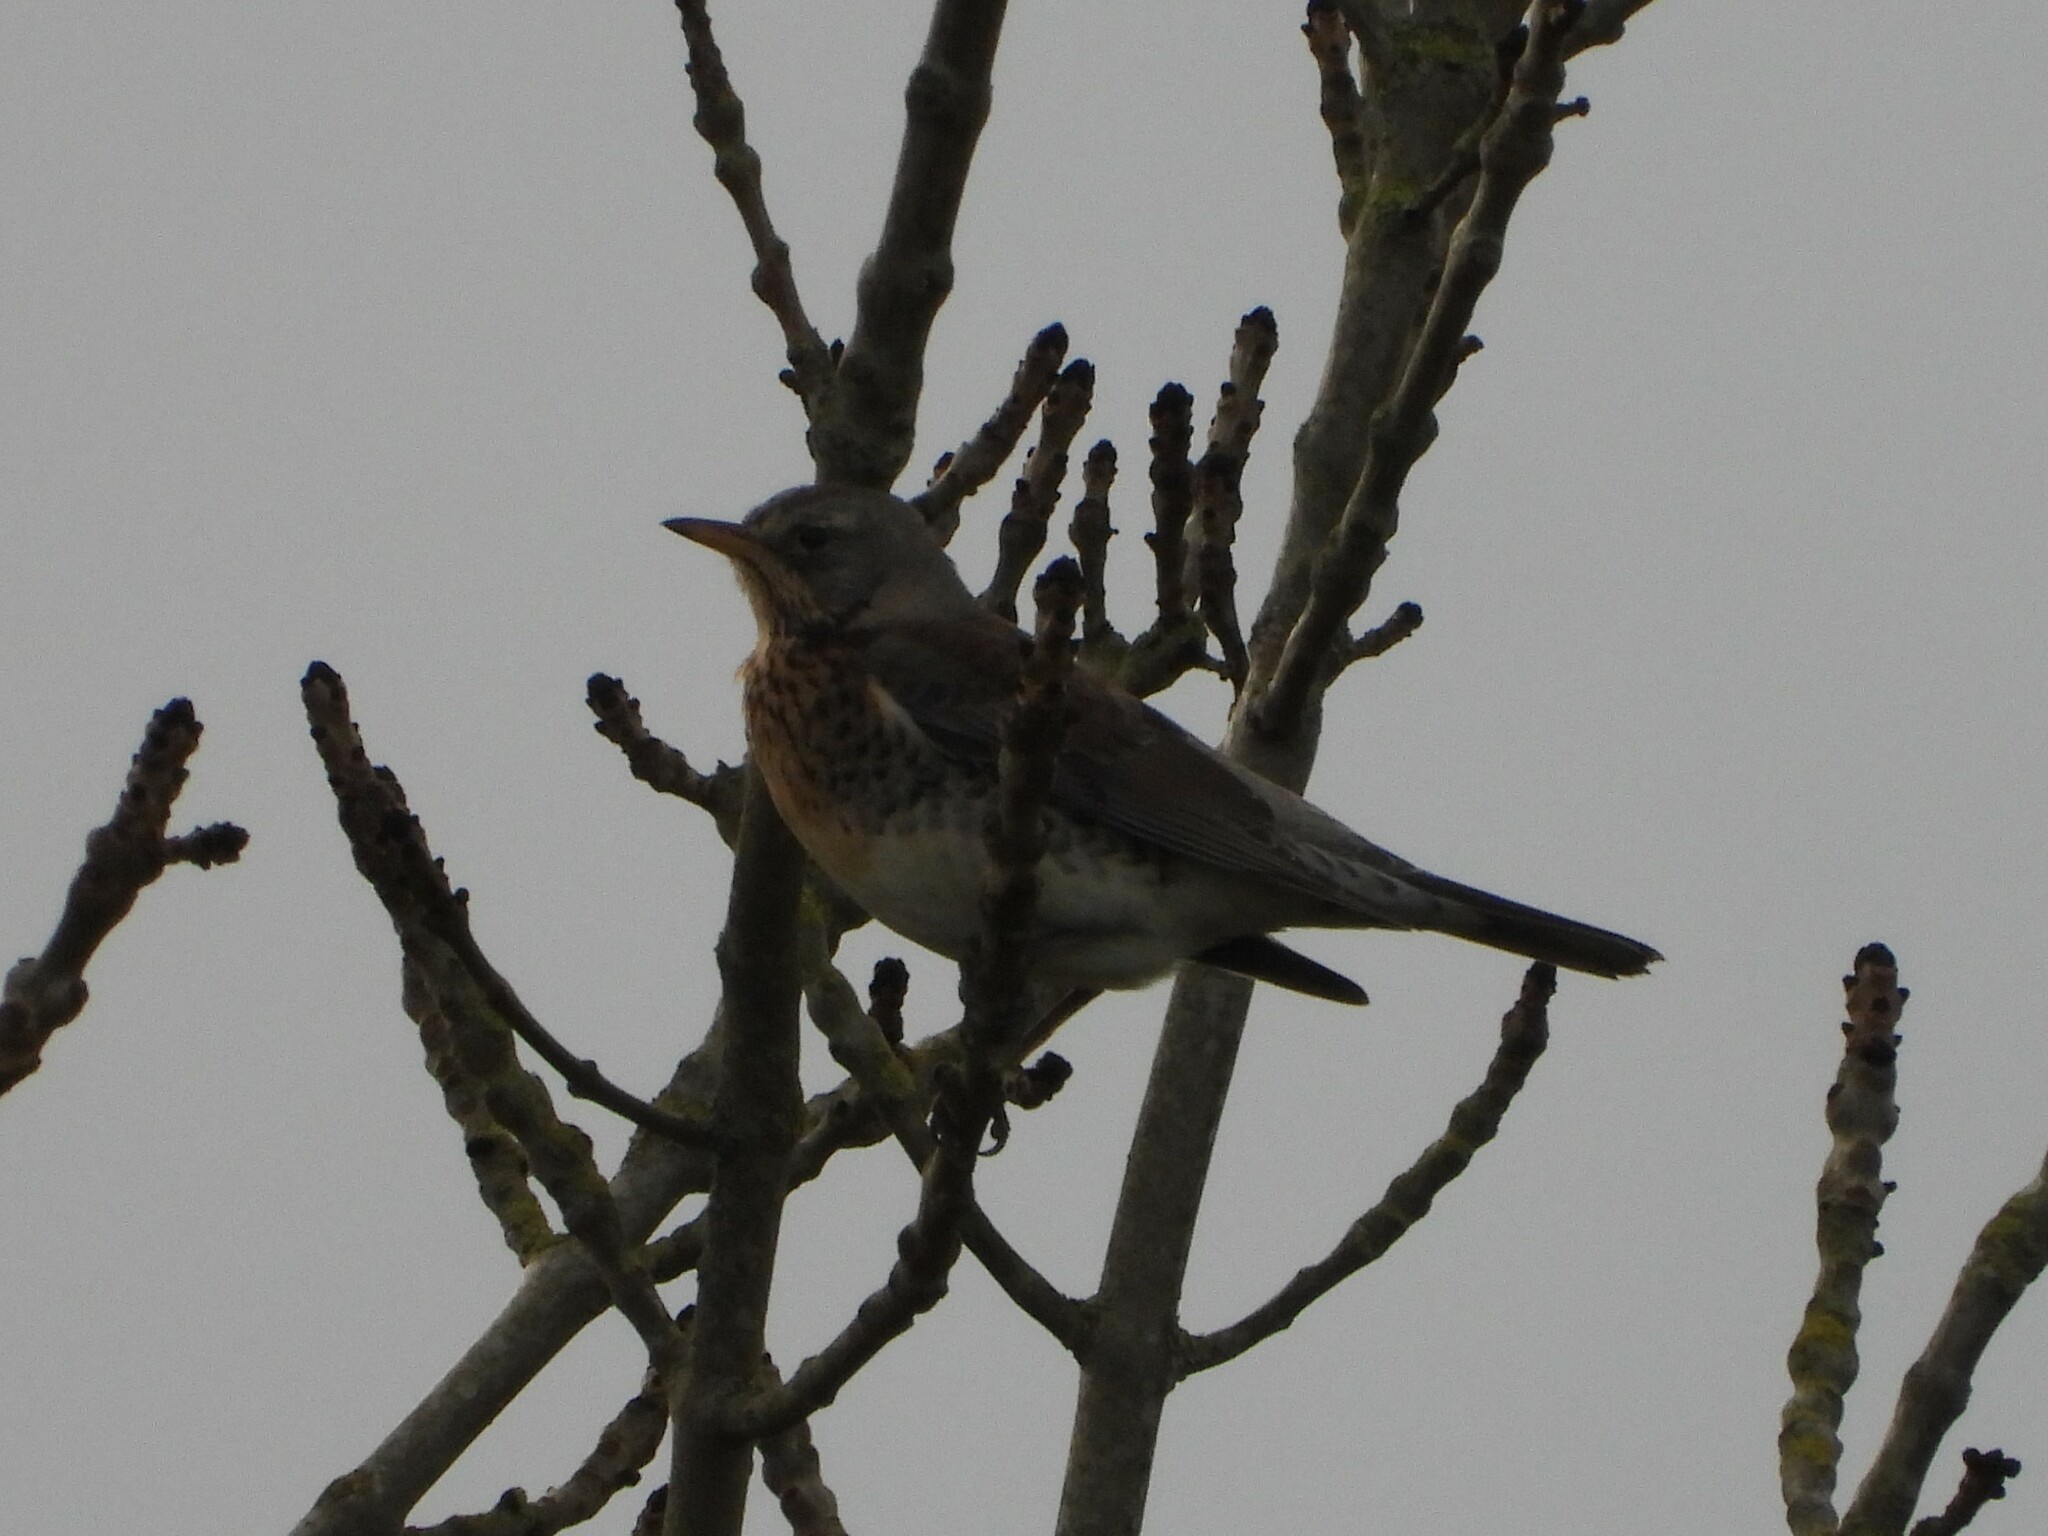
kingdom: Animalia
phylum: Chordata
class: Aves
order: Passeriformes
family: Turdidae
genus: Turdus
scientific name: Turdus pilaris
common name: Fieldfare
